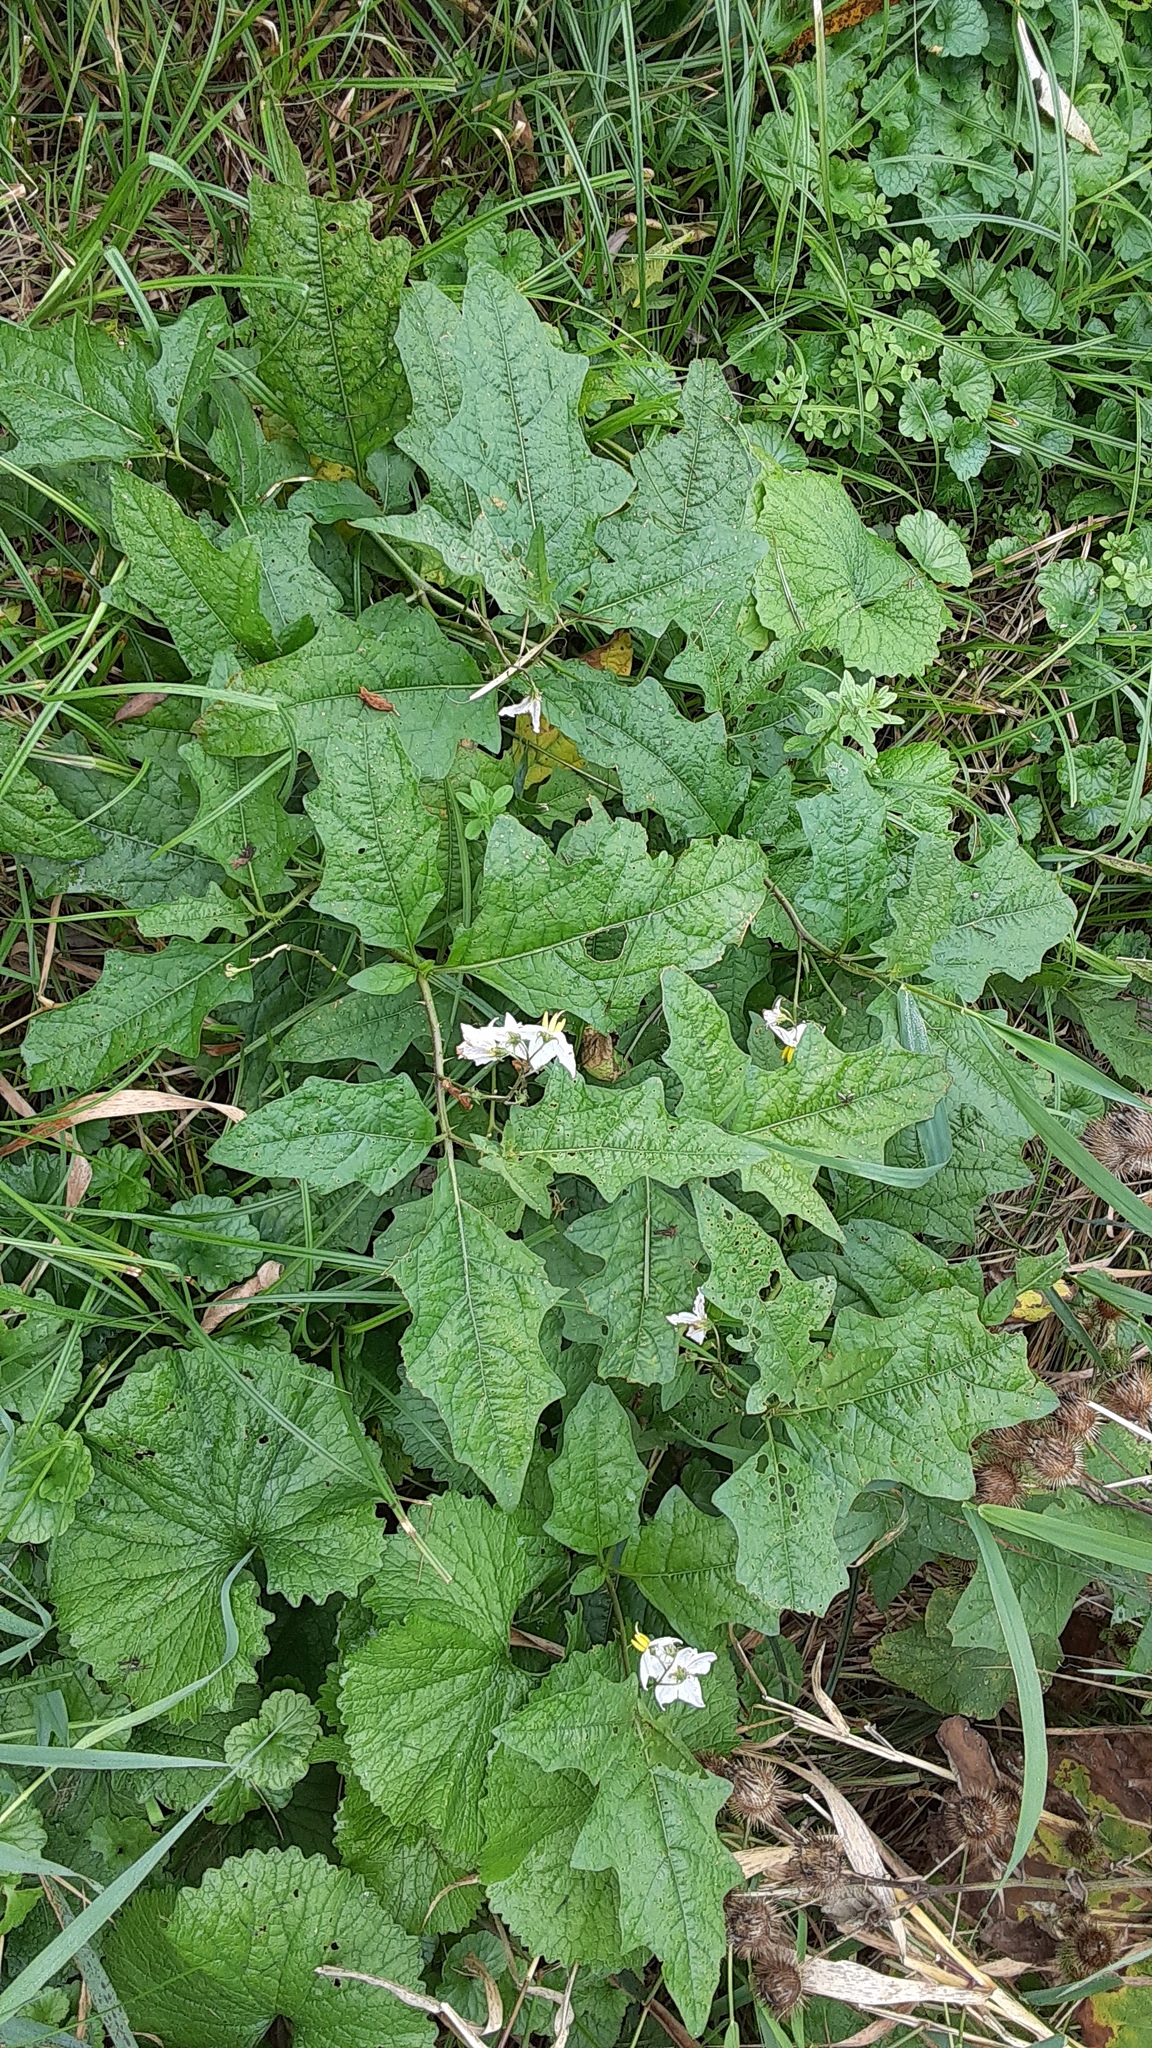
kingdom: Plantae
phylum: Tracheophyta
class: Magnoliopsida
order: Solanales
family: Solanaceae
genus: Solanum
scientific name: Solanum carolinense
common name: Horse-nettle
